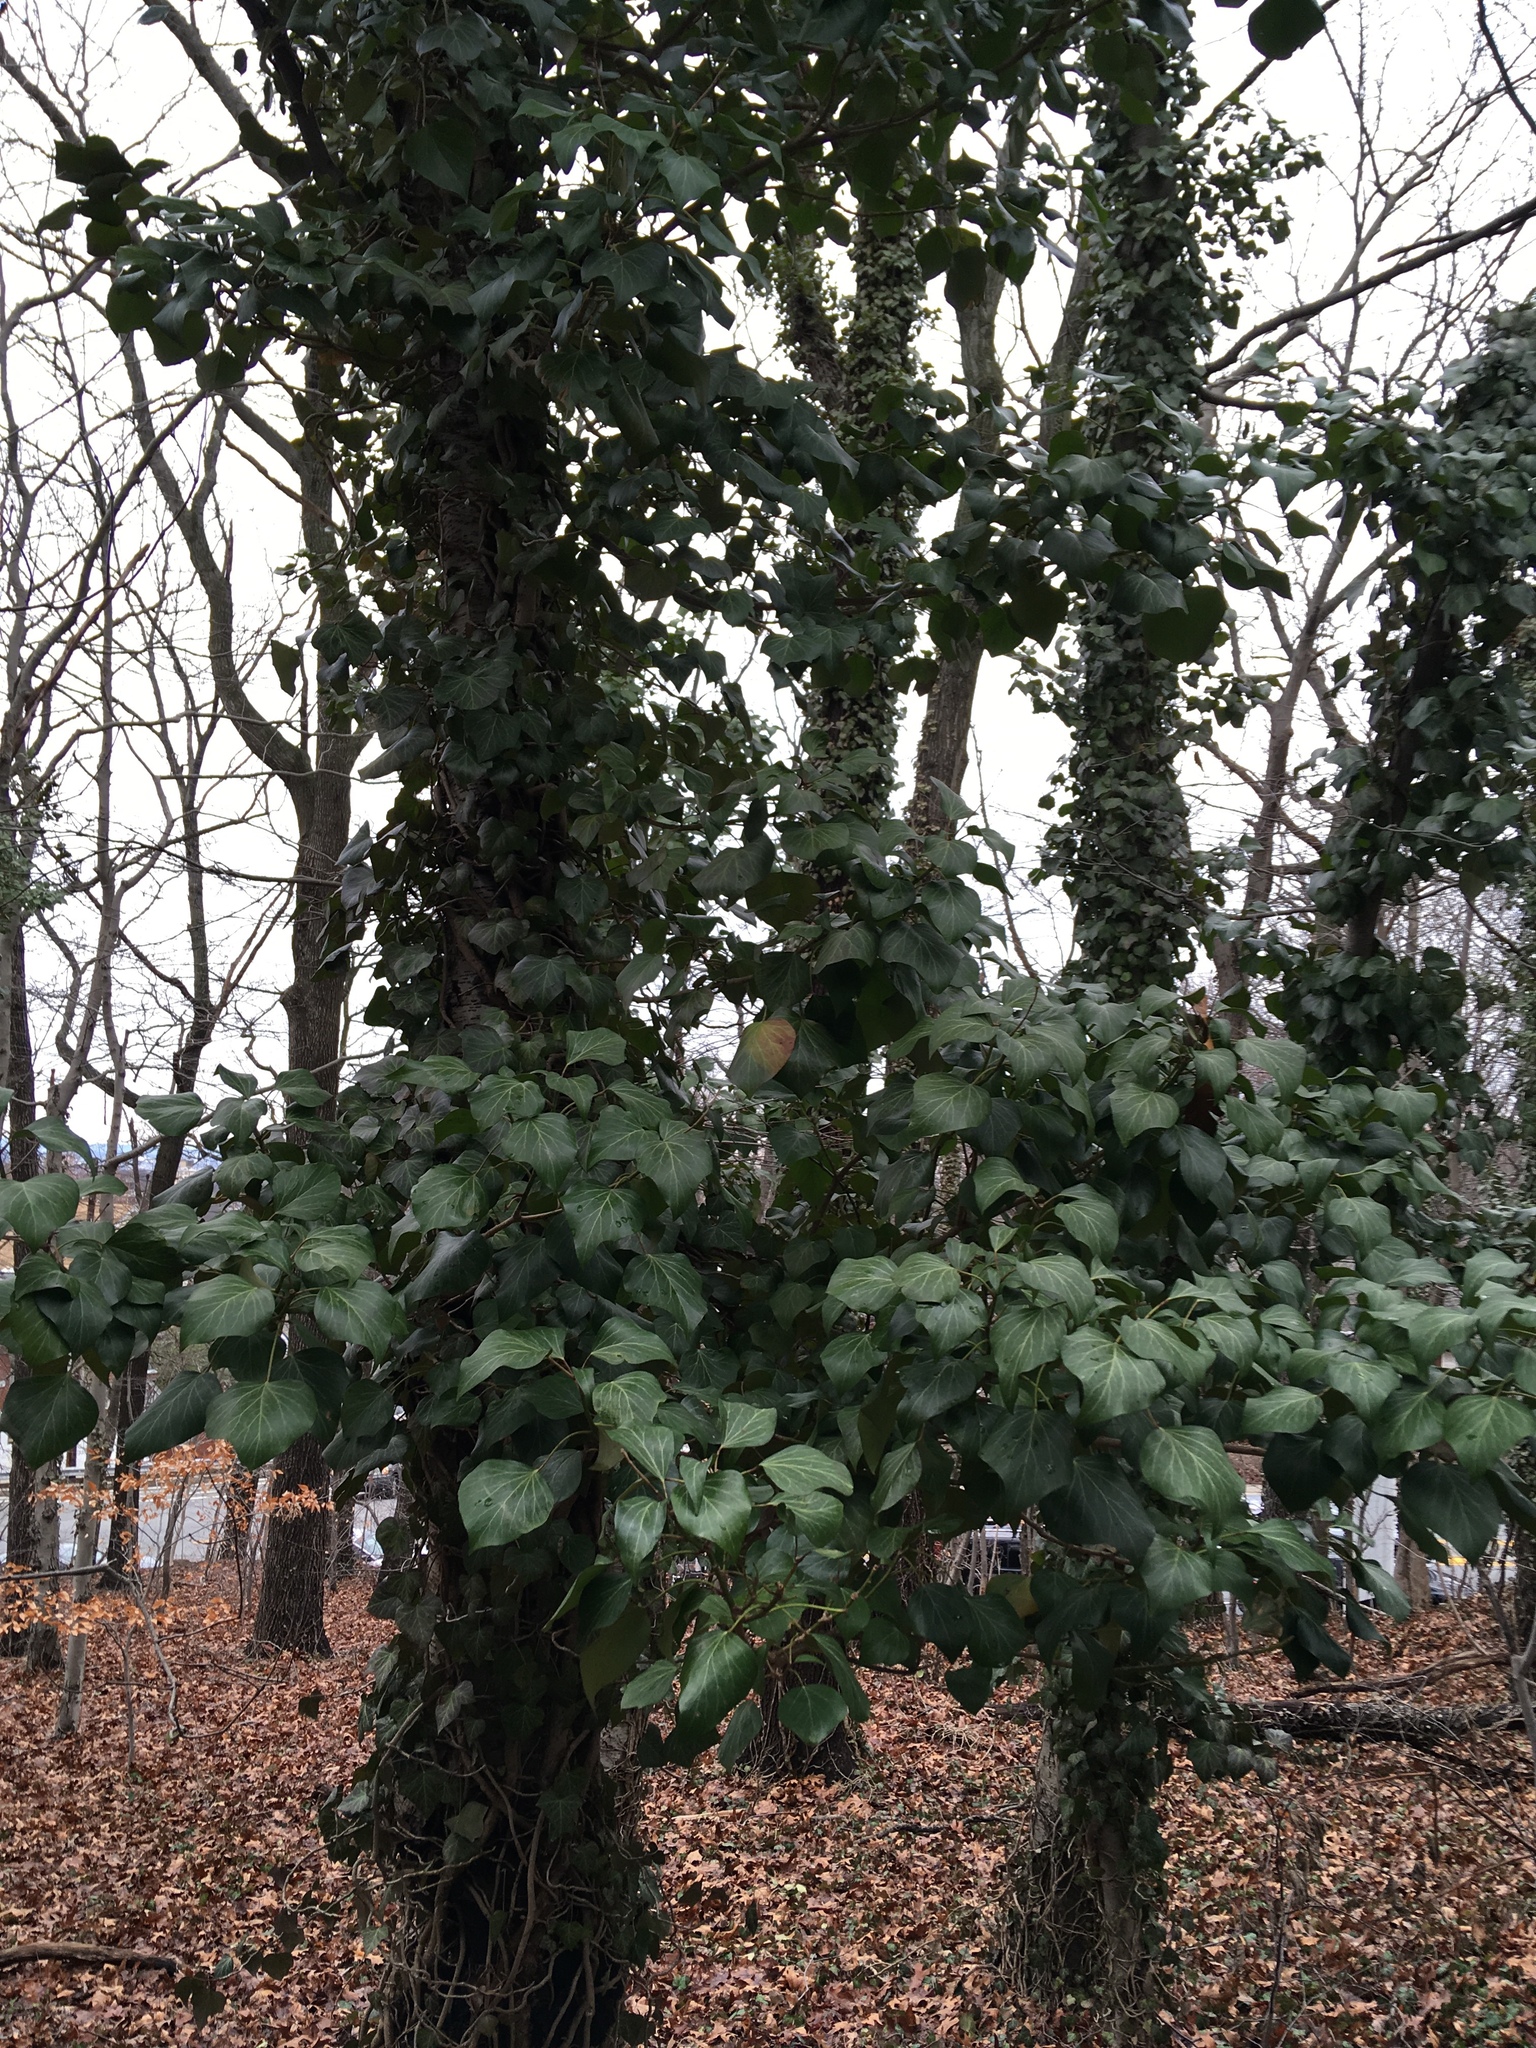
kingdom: Plantae
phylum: Tracheophyta
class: Magnoliopsida
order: Apiales
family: Araliaceae
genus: Hedera
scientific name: Hedera helix
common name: Ivy
